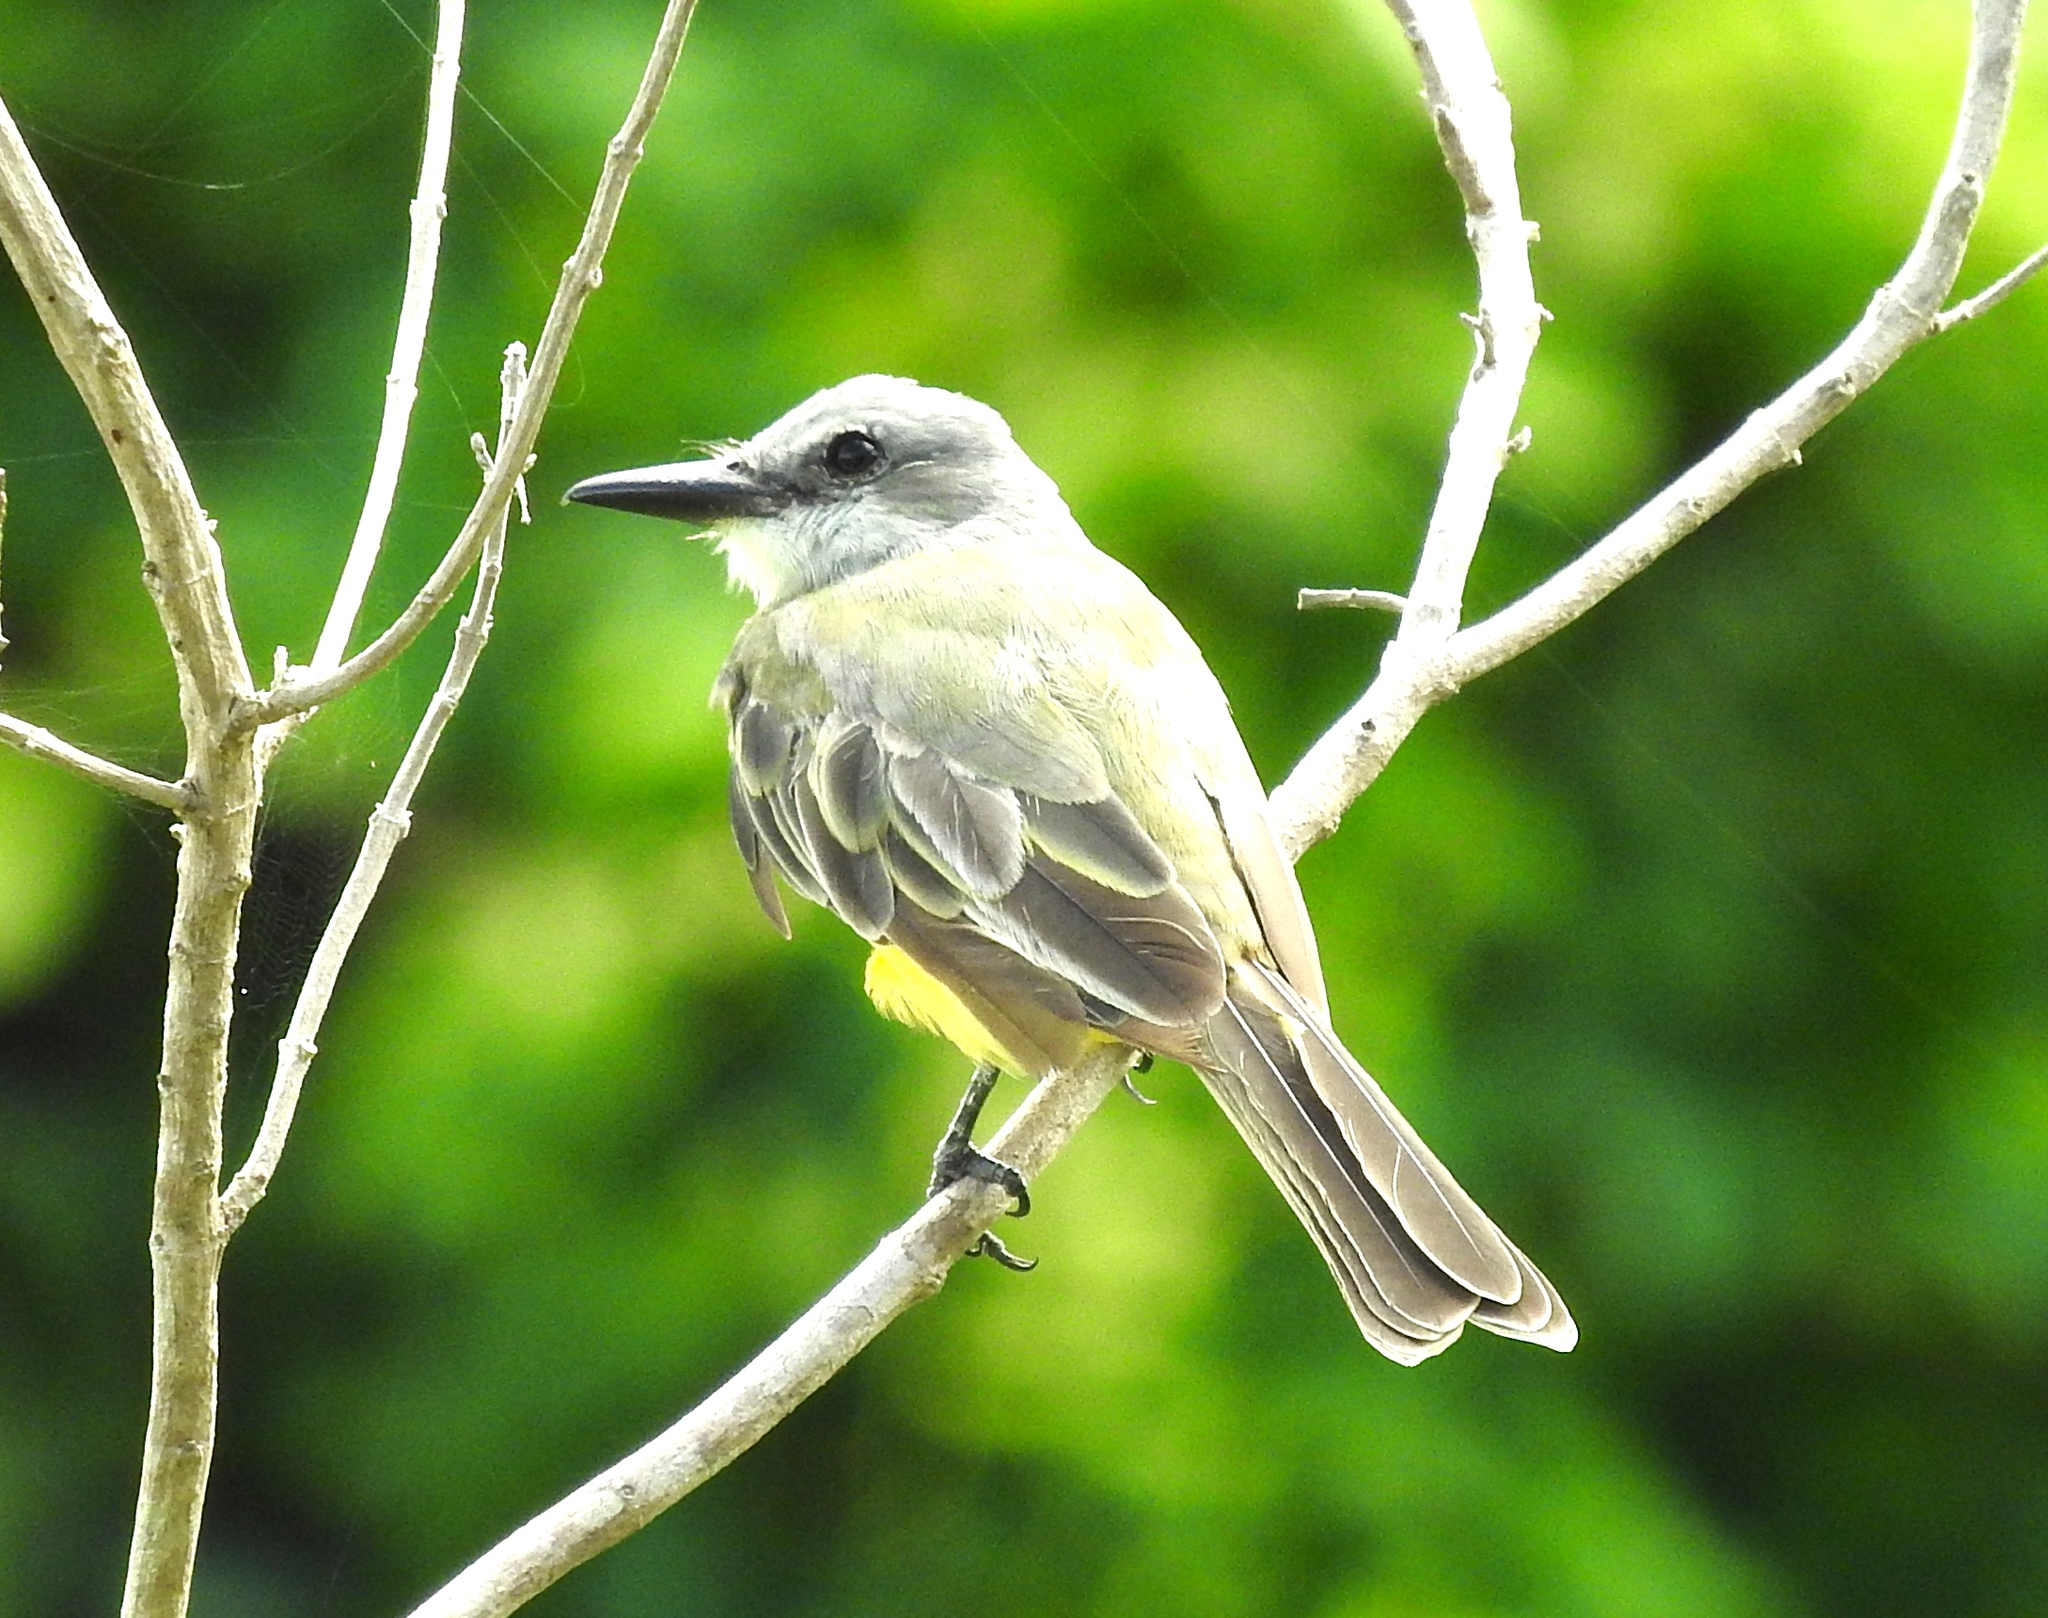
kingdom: Animalia
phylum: Chordata
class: Aves
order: Passeriformes
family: Tyrannidae
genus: Tyrannus
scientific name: Tyrannus melancholicus
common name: Tropical kingbird
